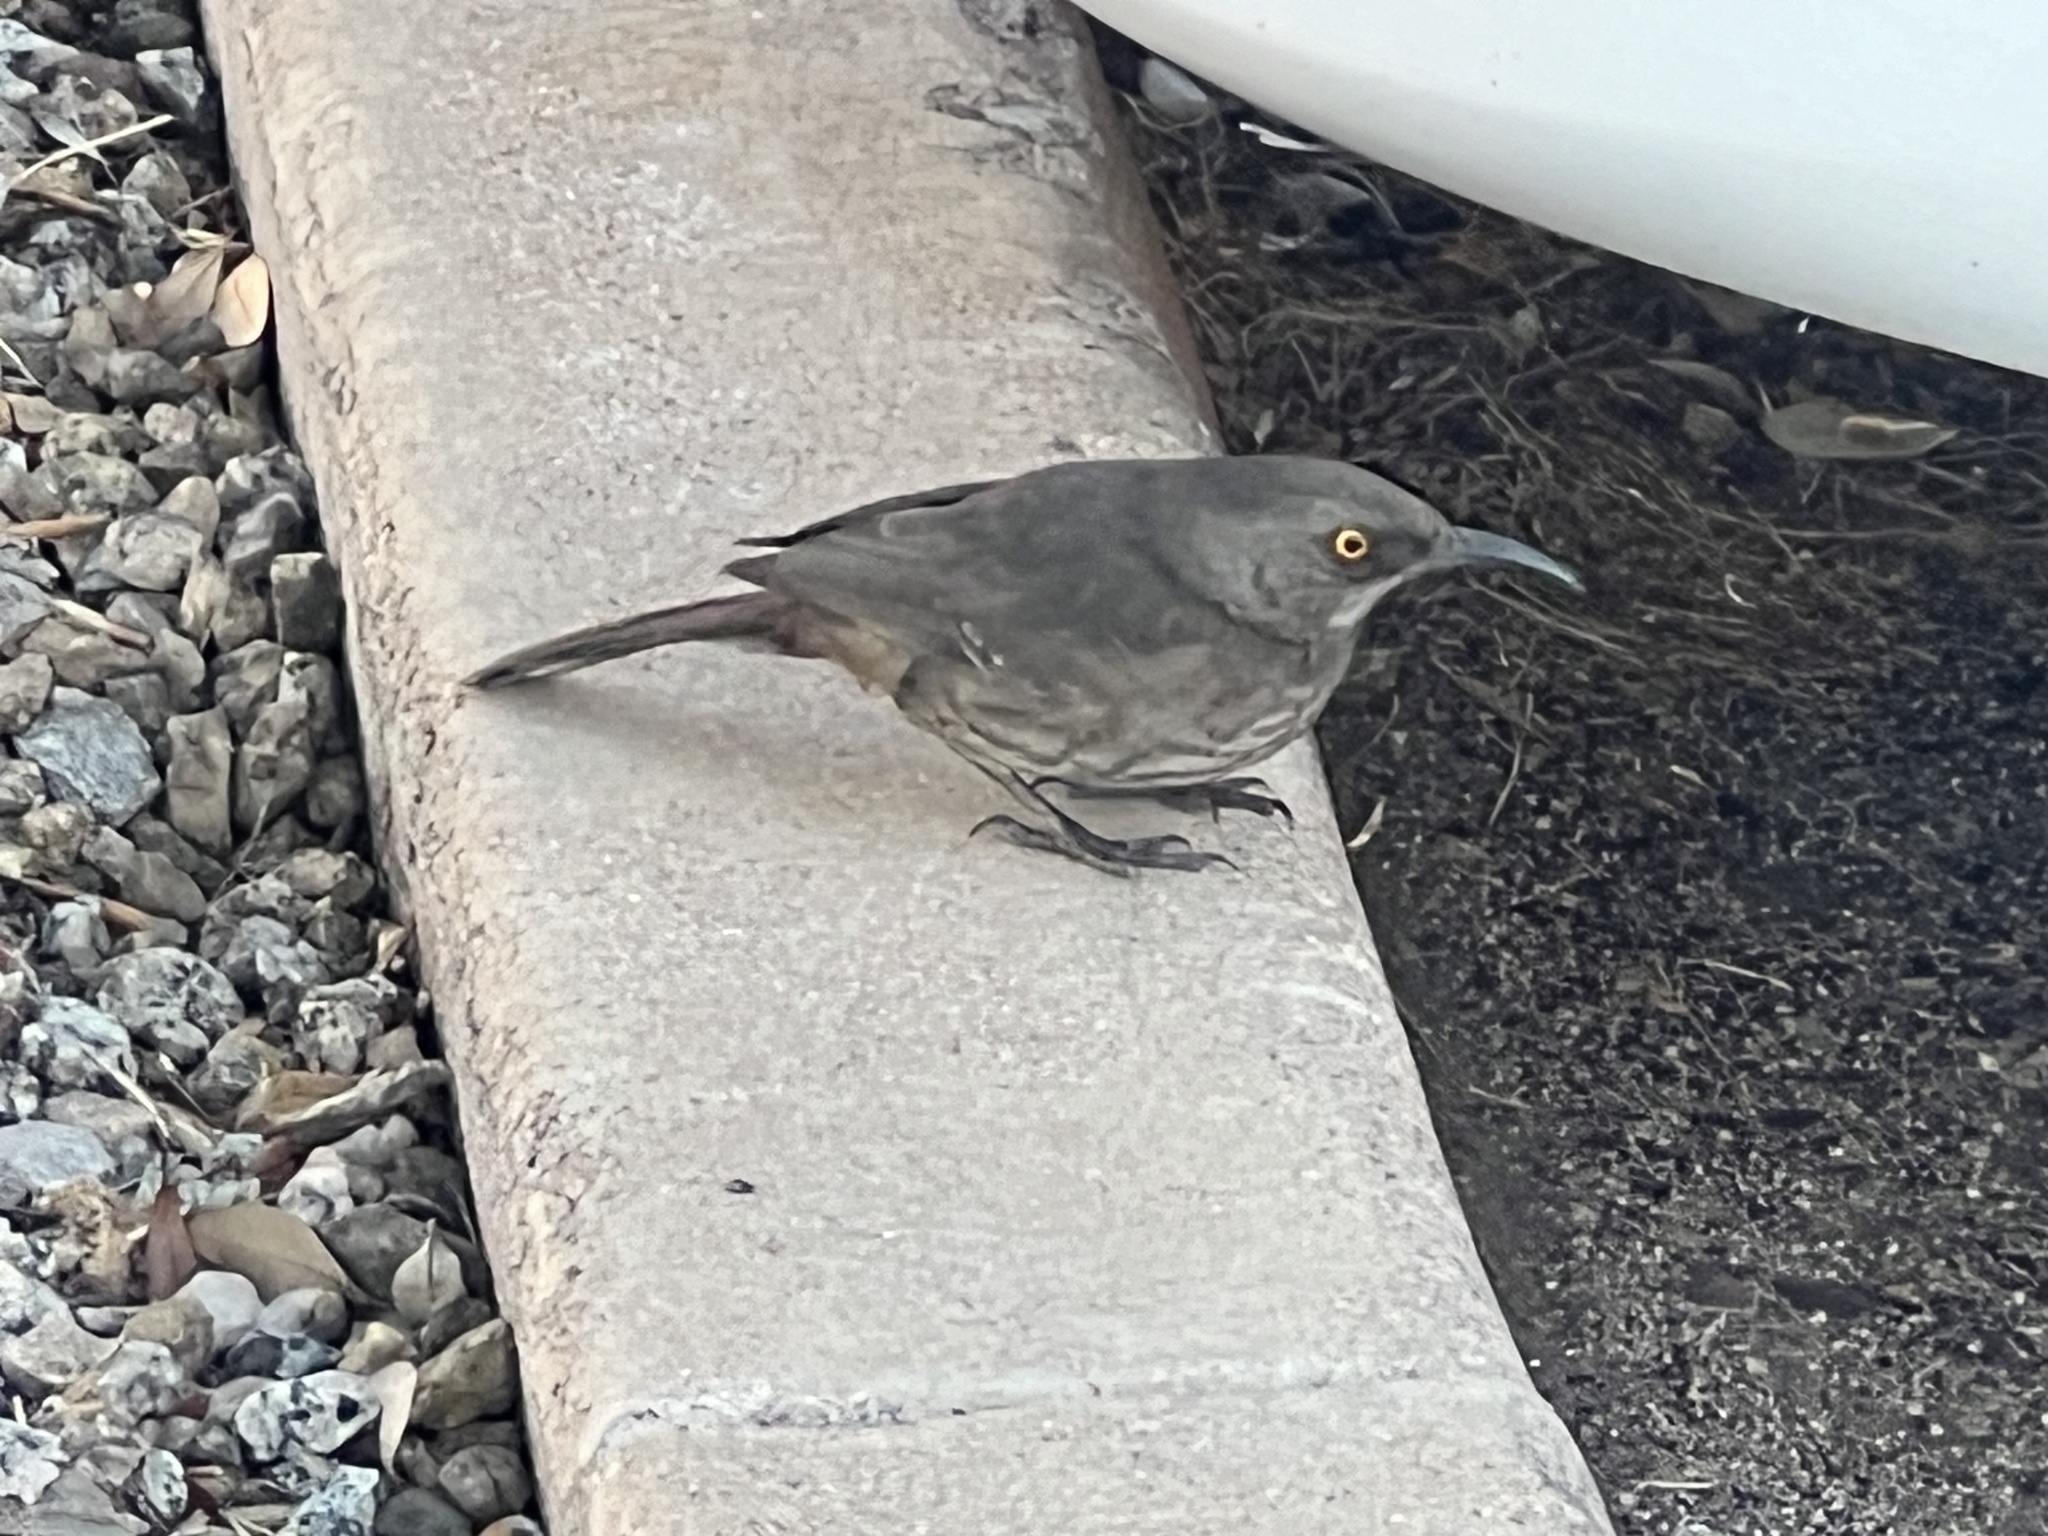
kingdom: Animalia
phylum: Chordata
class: Aves
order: Passeriformes
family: Mimidae
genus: Toxostoma
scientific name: Toxostoma curvirostre
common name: Curve-billed thrasher
